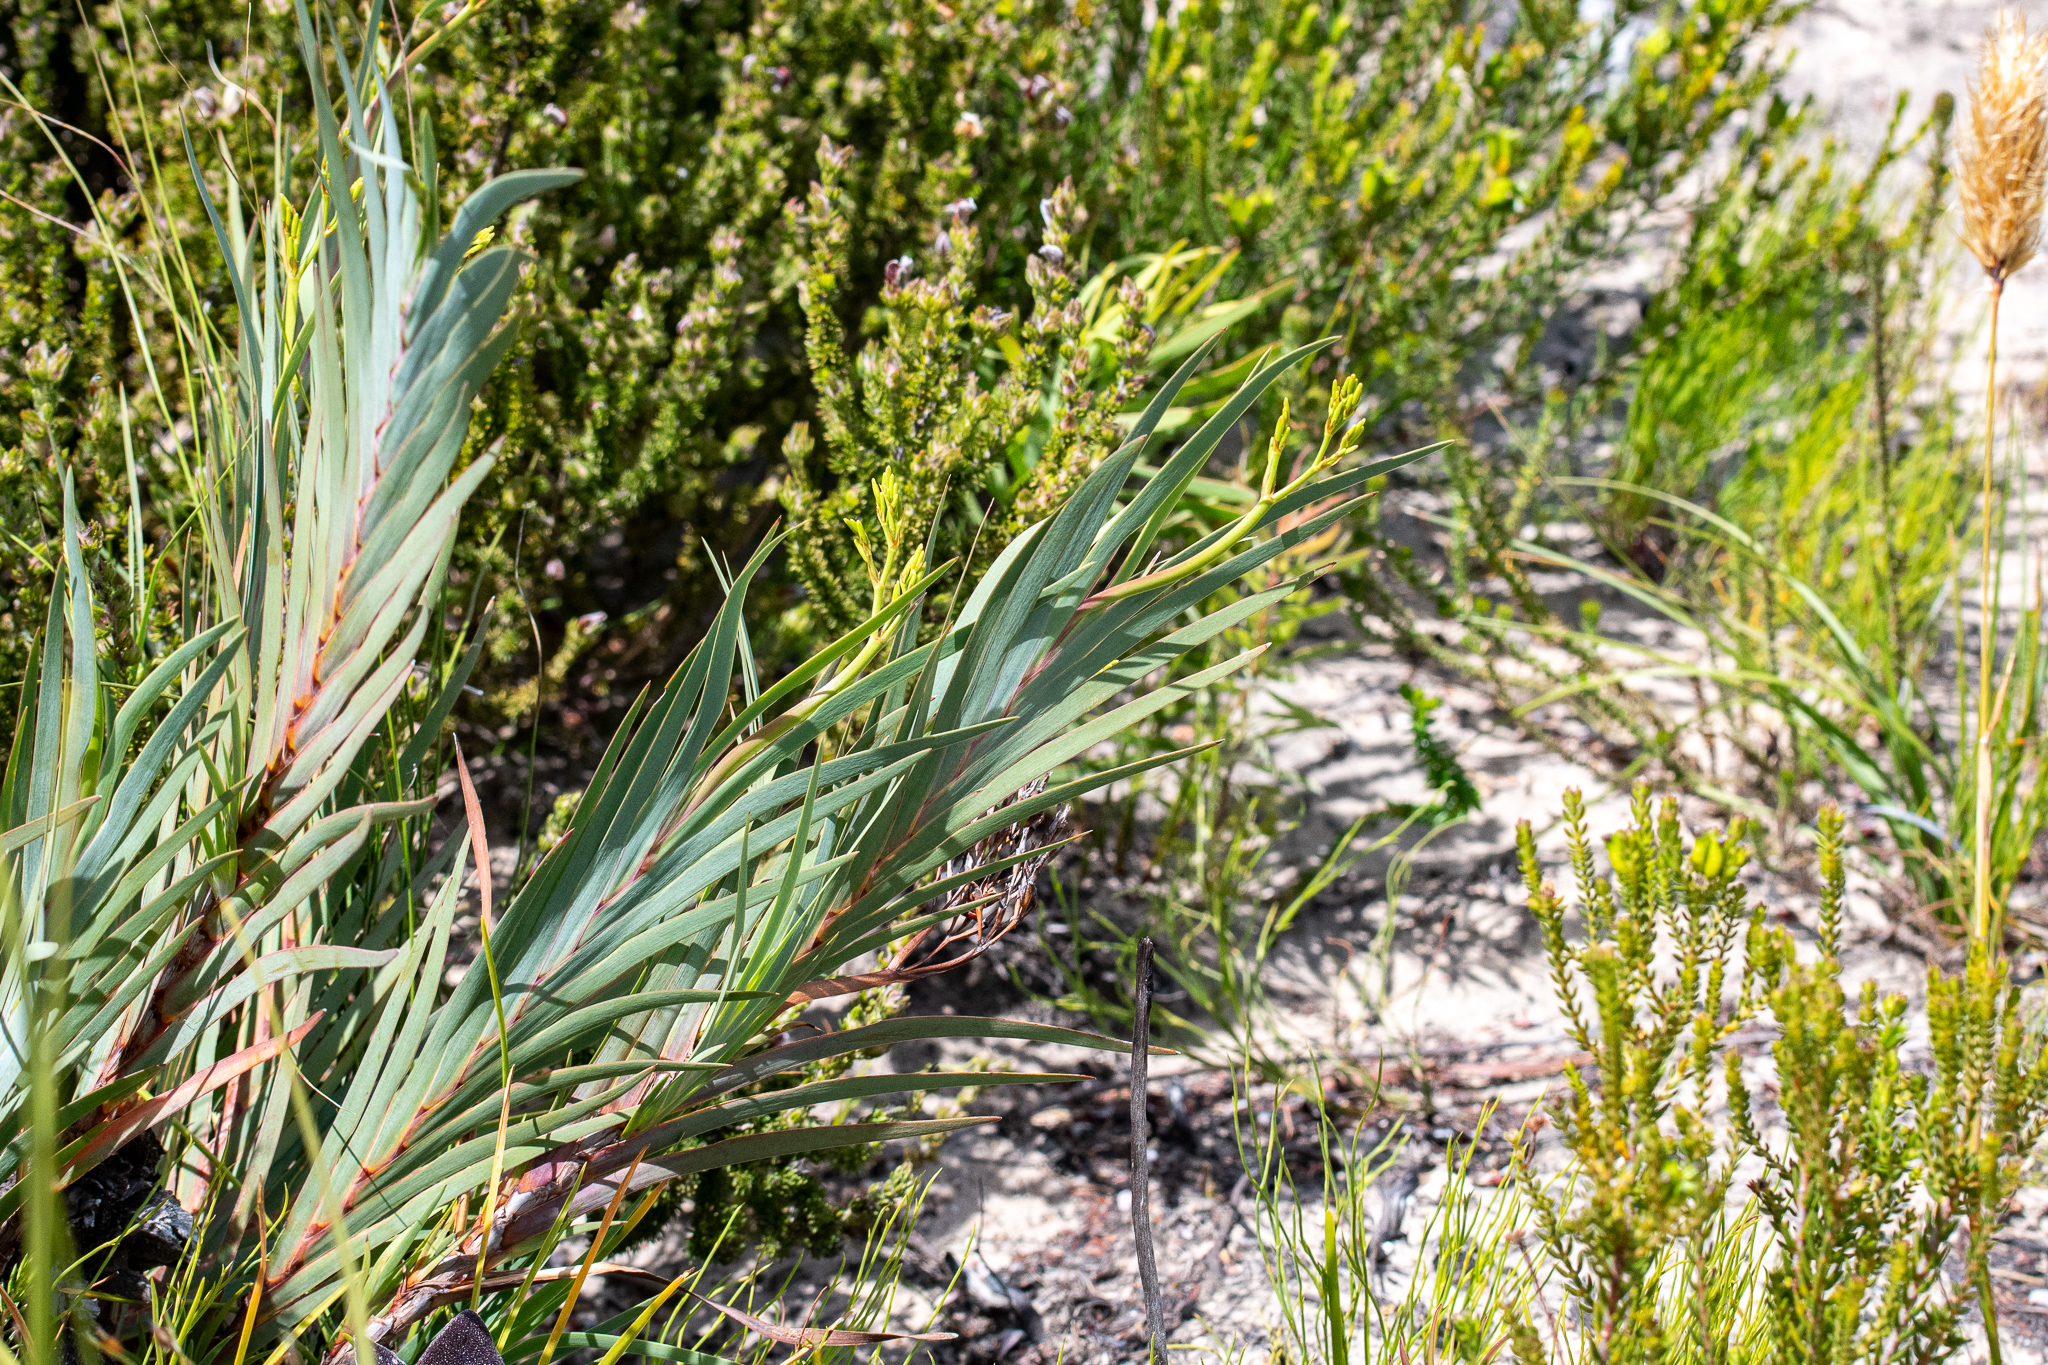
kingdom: Plantae
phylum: Tracheophyta
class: Liliopsida
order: Asparagales
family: Iridaceae
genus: Nivenia
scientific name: Nivenia stokoei
